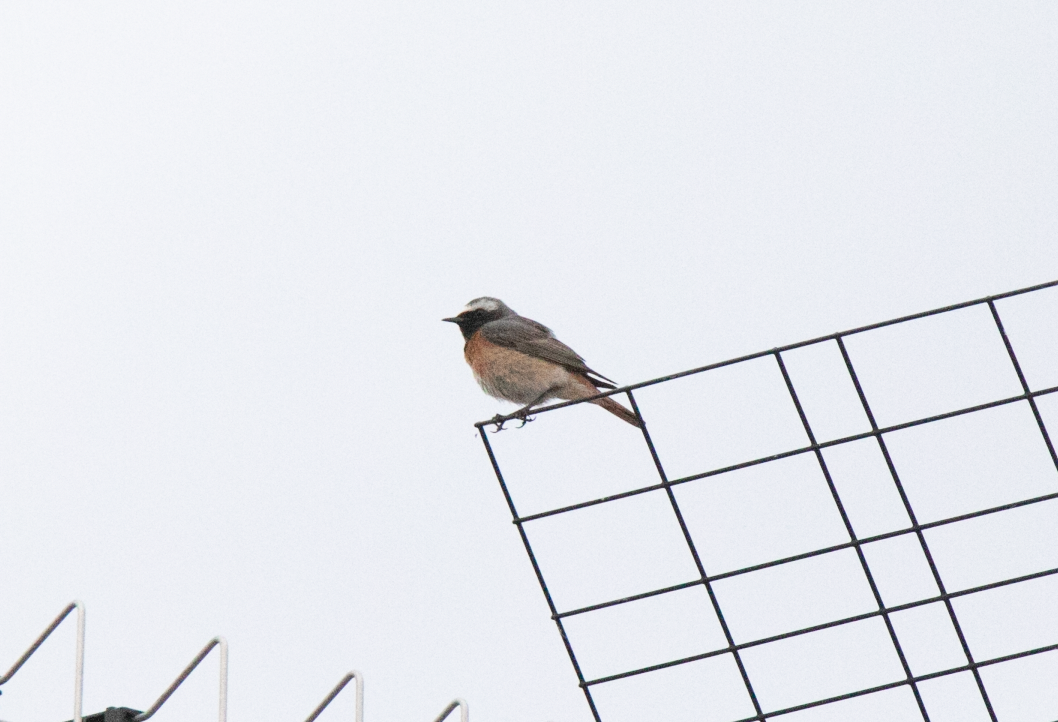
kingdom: Animalia
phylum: Chordata
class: Aves
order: Passeriformes
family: Muscicapidae
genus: Phoenicurus
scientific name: Phoenicurus phoenicurus
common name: Common redstart
